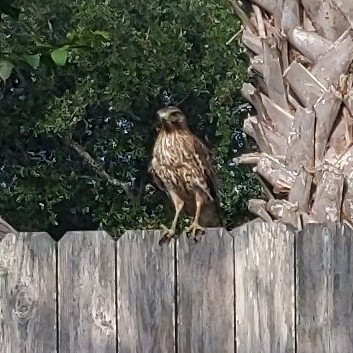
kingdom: Animalia
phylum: Chordata
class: Aves
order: Accipitriformes
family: Accipitridae
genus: Accipiter
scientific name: Accipiter cooperii
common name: Cooper's hawk
